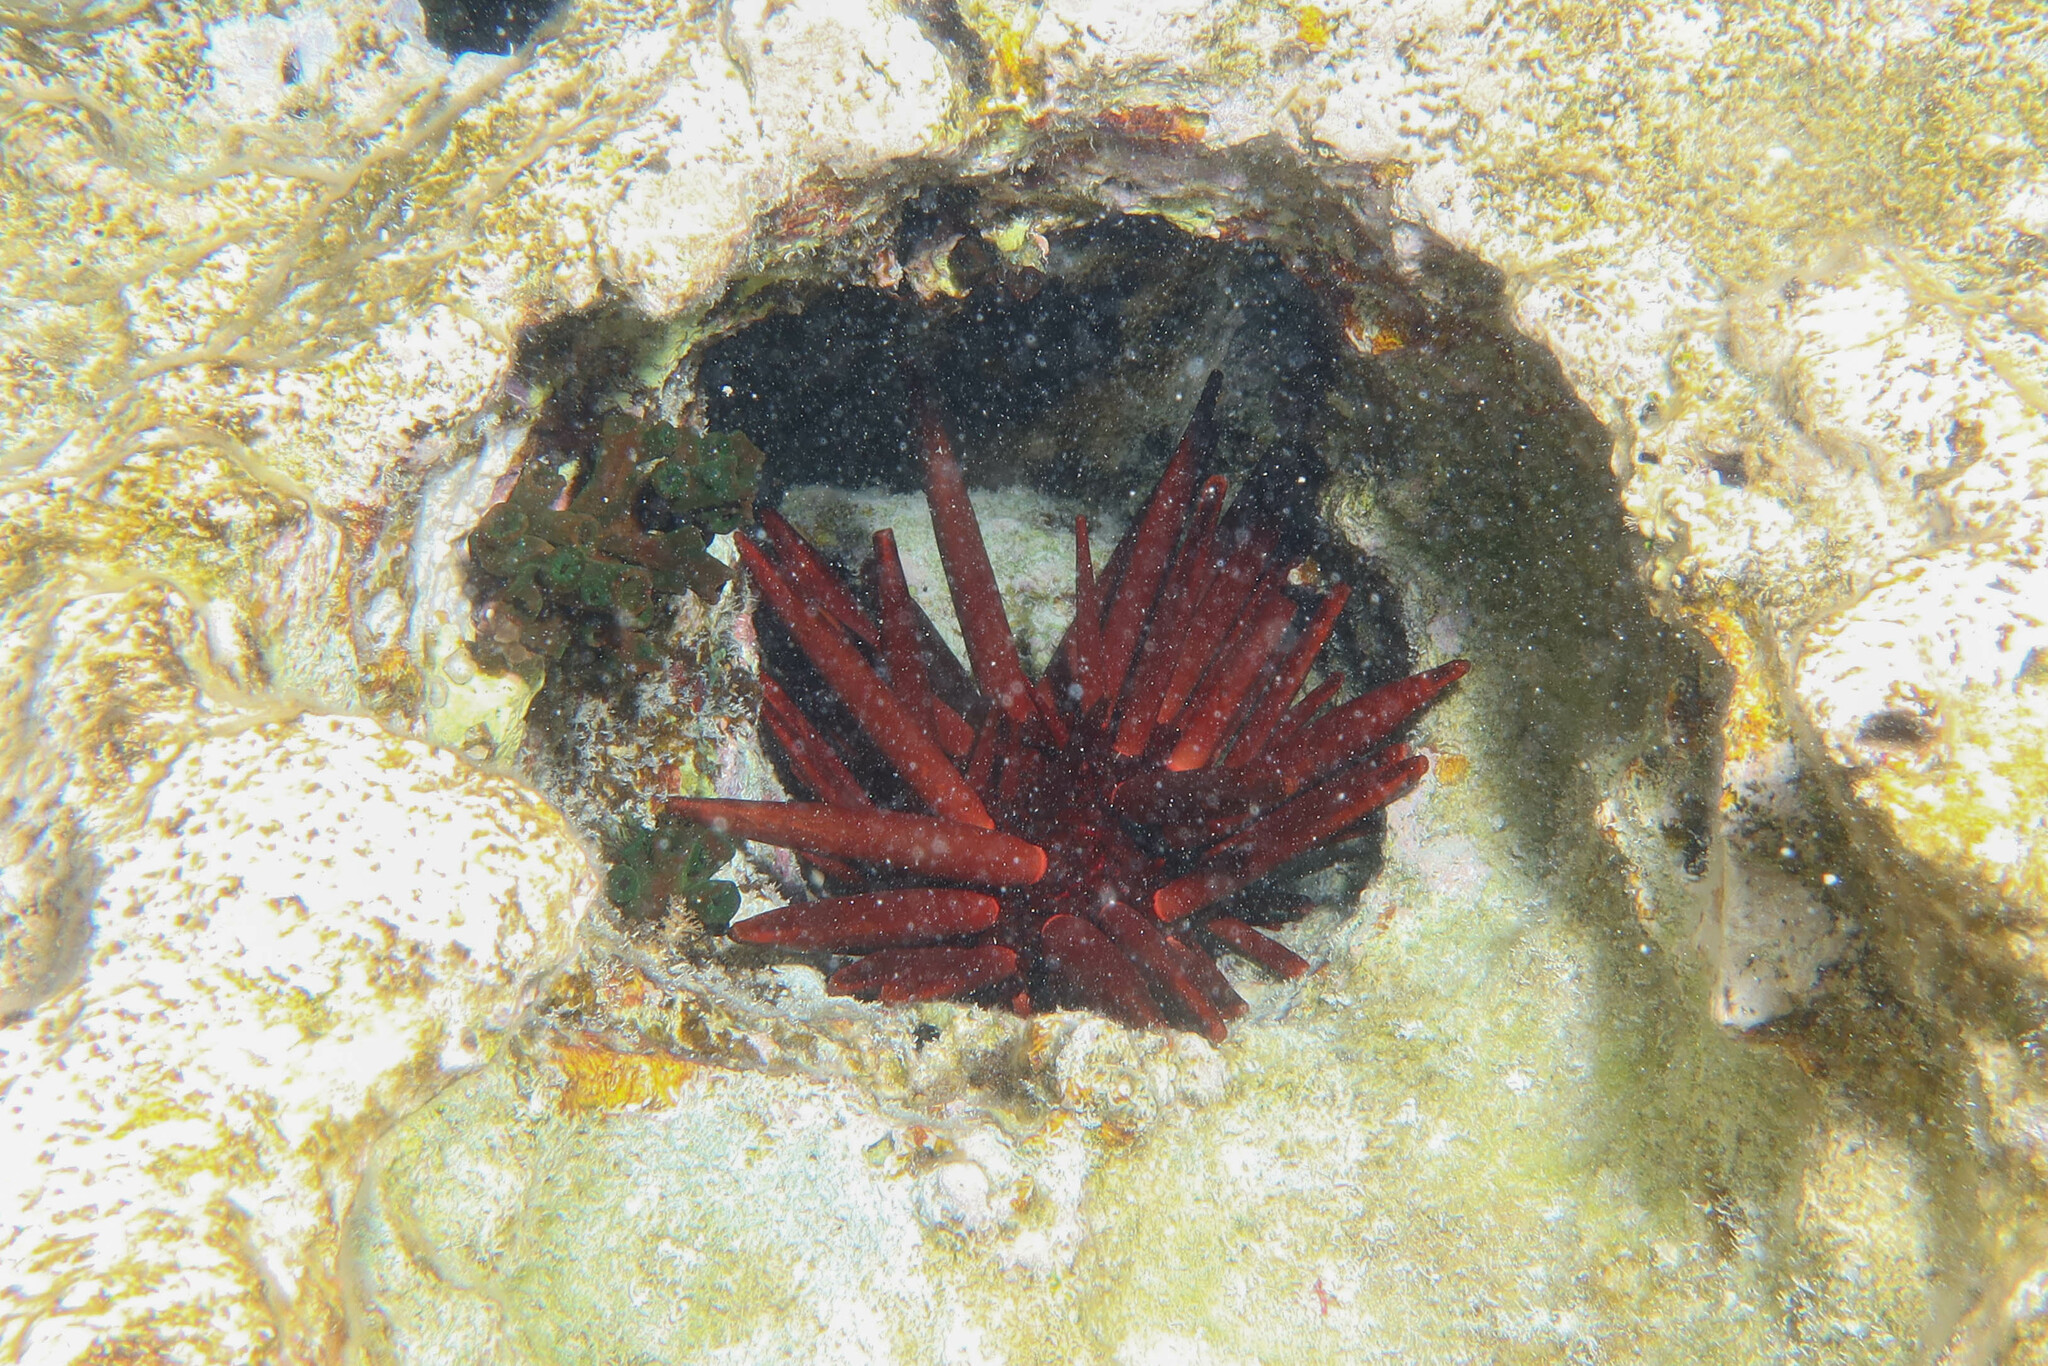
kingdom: Animalia
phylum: Echinodermata
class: Echinoidea
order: Camarodonta
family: Echinometridae
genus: Heterocentrotus
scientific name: Heterocentrotus mamillatus
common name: Slate pencil urchin
